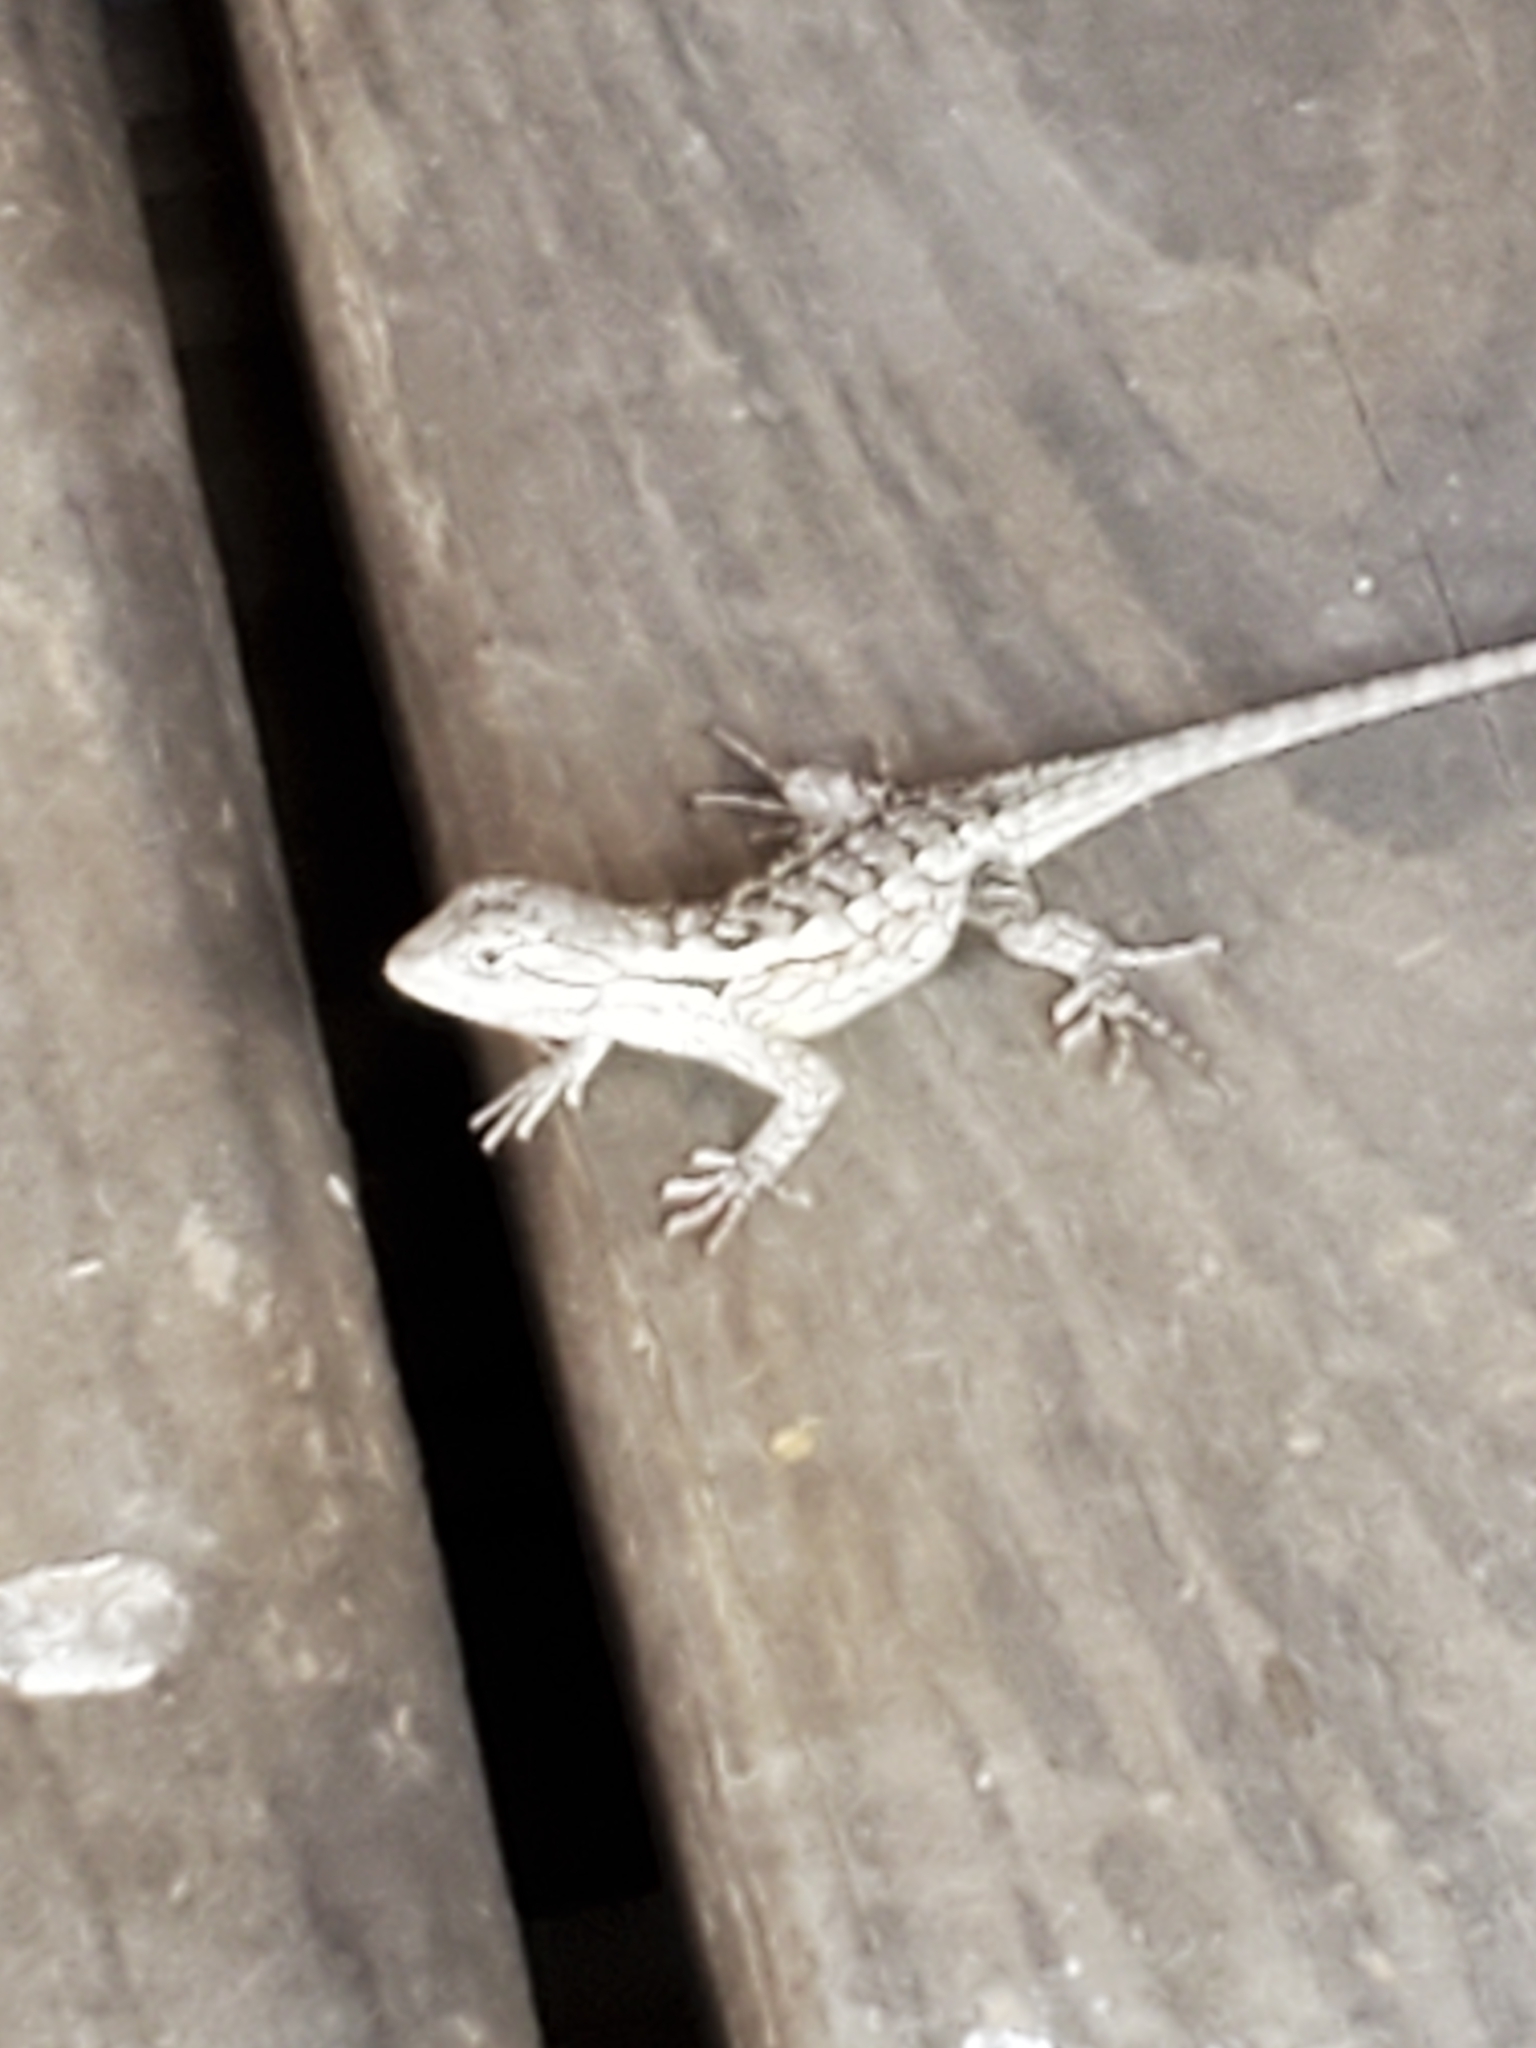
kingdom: Animalia
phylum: Chordata
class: Squamata
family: Phrynosomatidae
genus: Sceloporus
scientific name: Sceloporus olivaceus
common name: Texas spiny lizard
